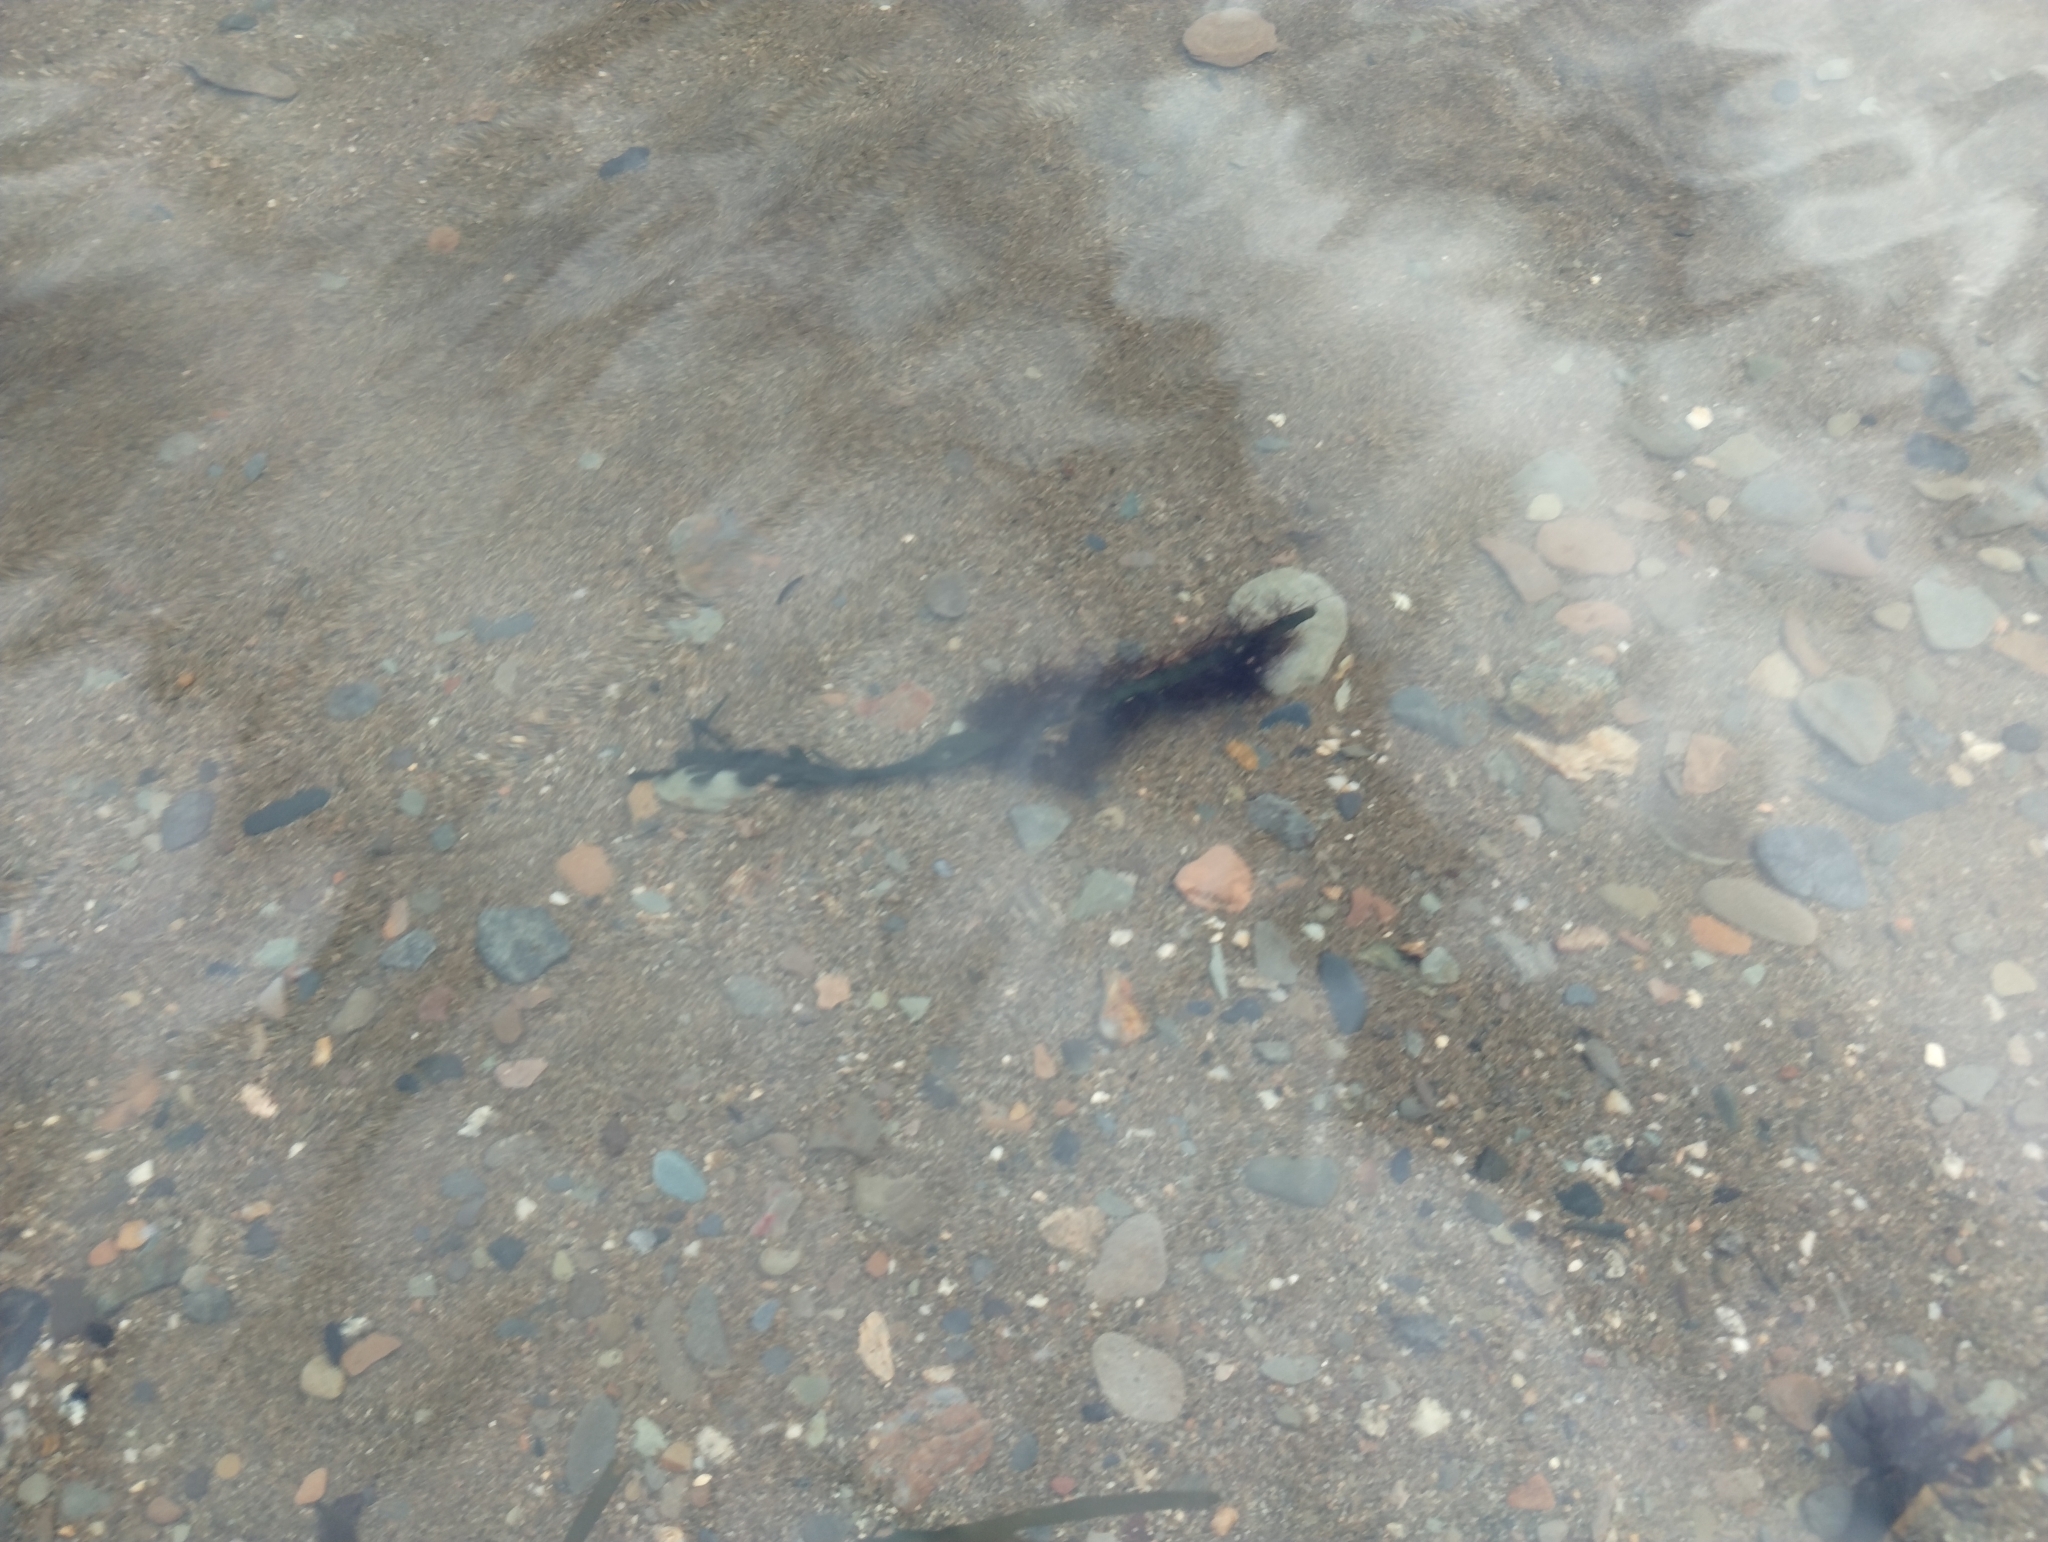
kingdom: Plantae
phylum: Rhodophyta
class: Florideophyceae
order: Ceramiales
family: Rhodomelaceae
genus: Vertebrata
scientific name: Vertebrata lanosa
